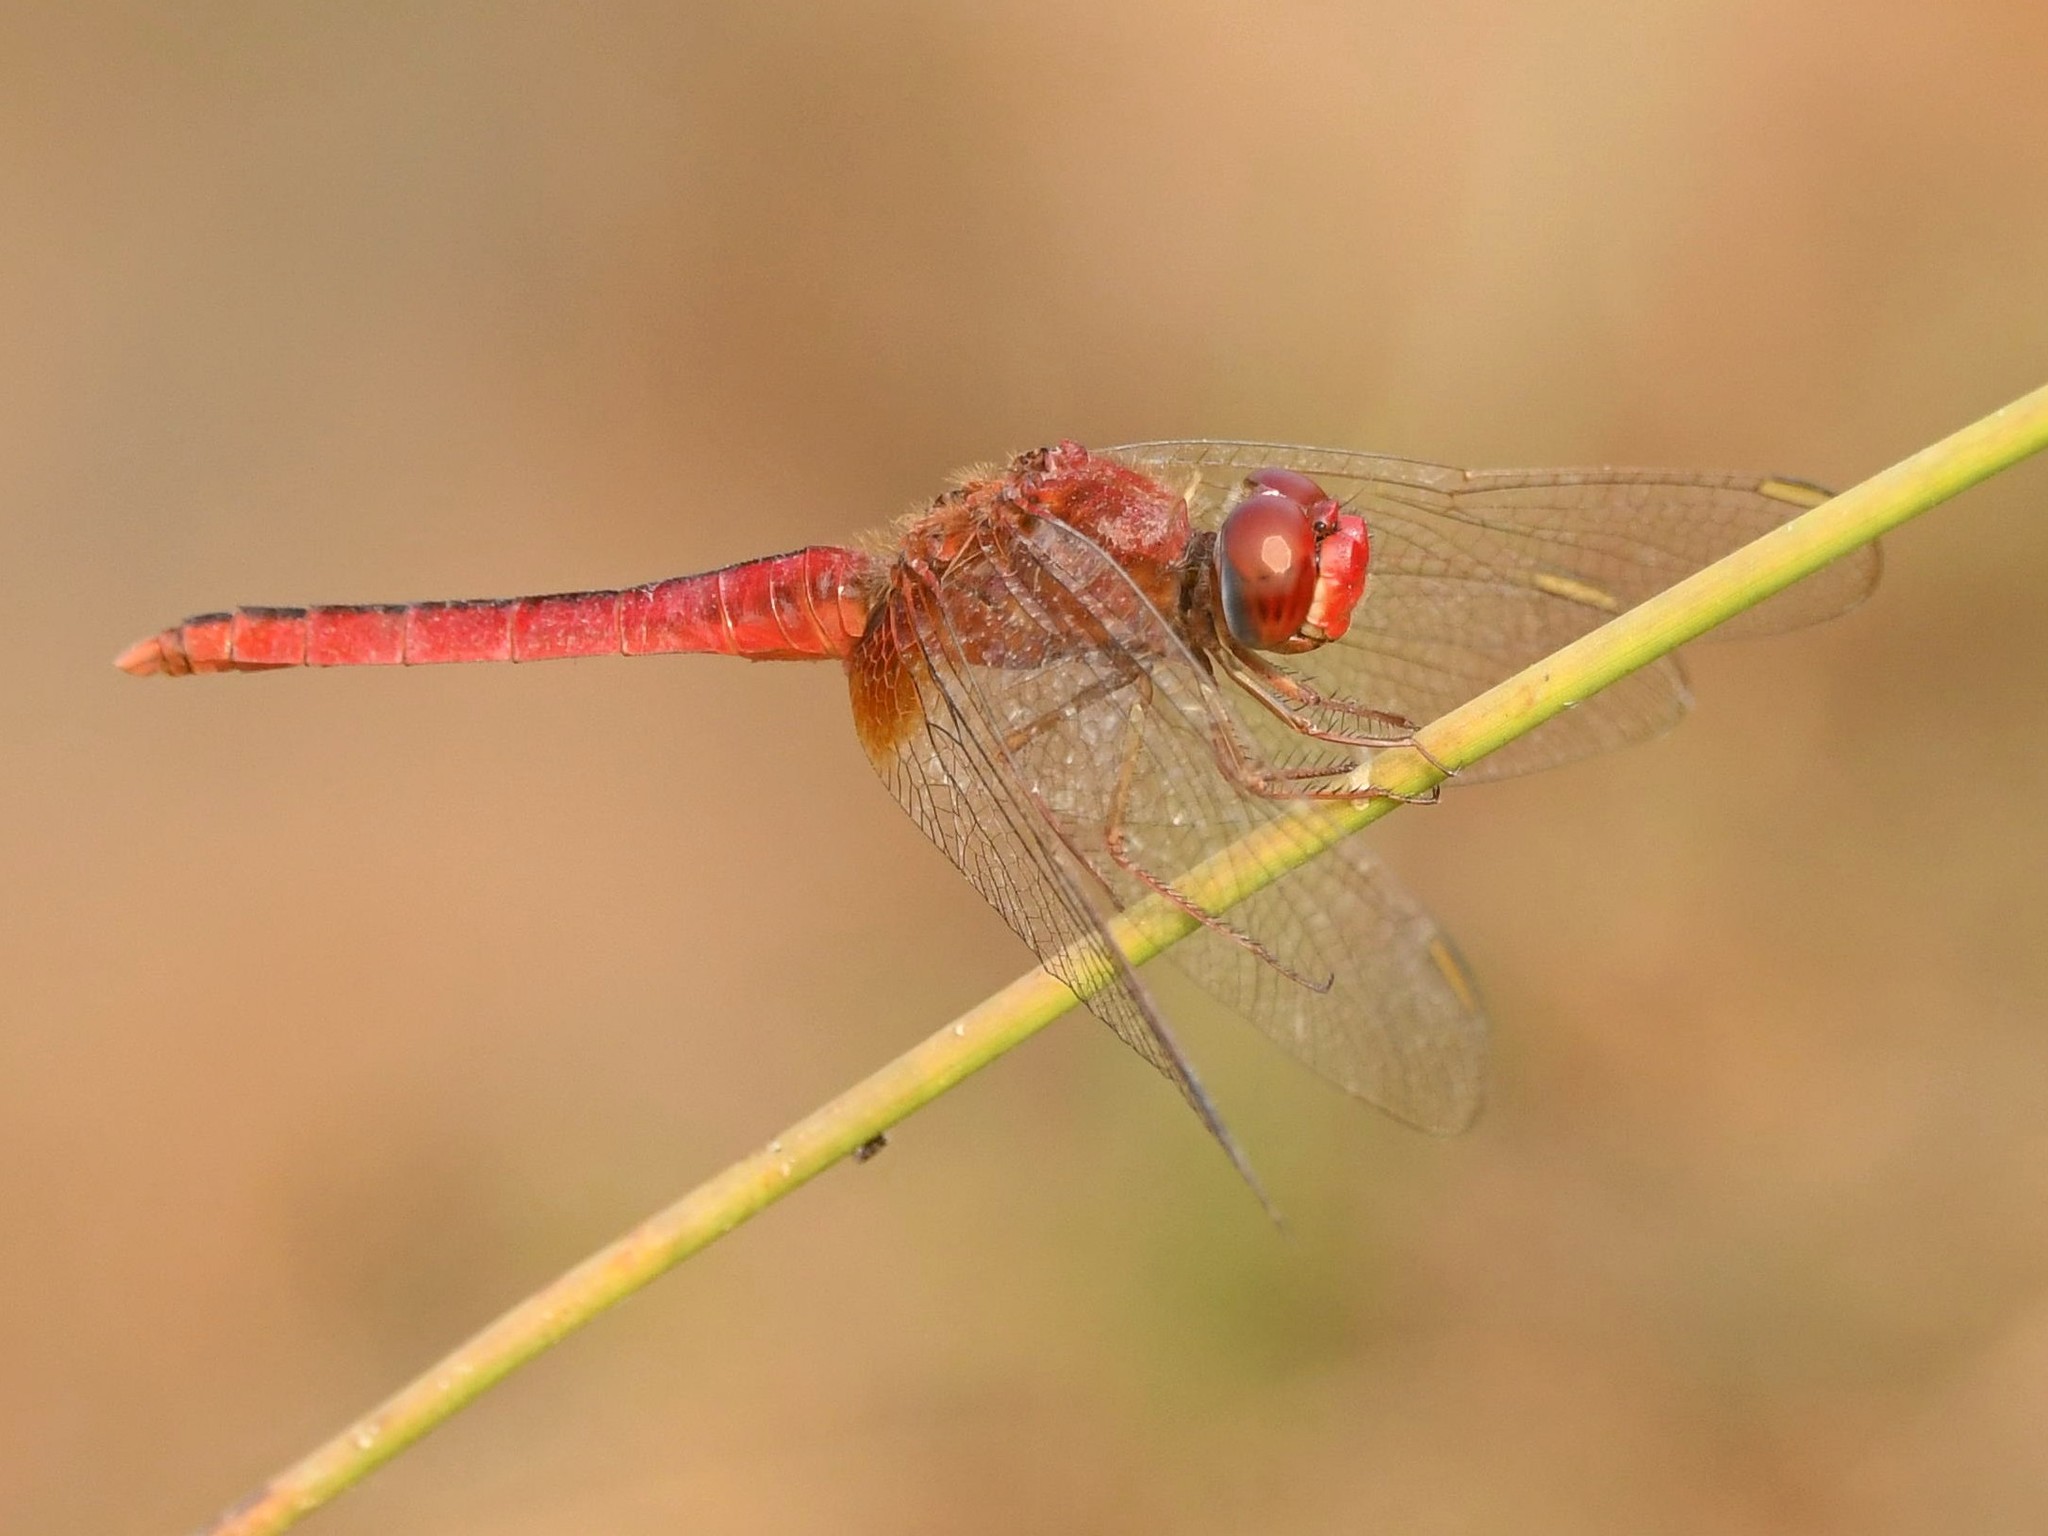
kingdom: Animalia
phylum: Arthropoda
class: Insecta
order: Odonata
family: Libellulidae
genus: Crocothemis
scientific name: Crocothemis servilia
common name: Scarlet skimmer
